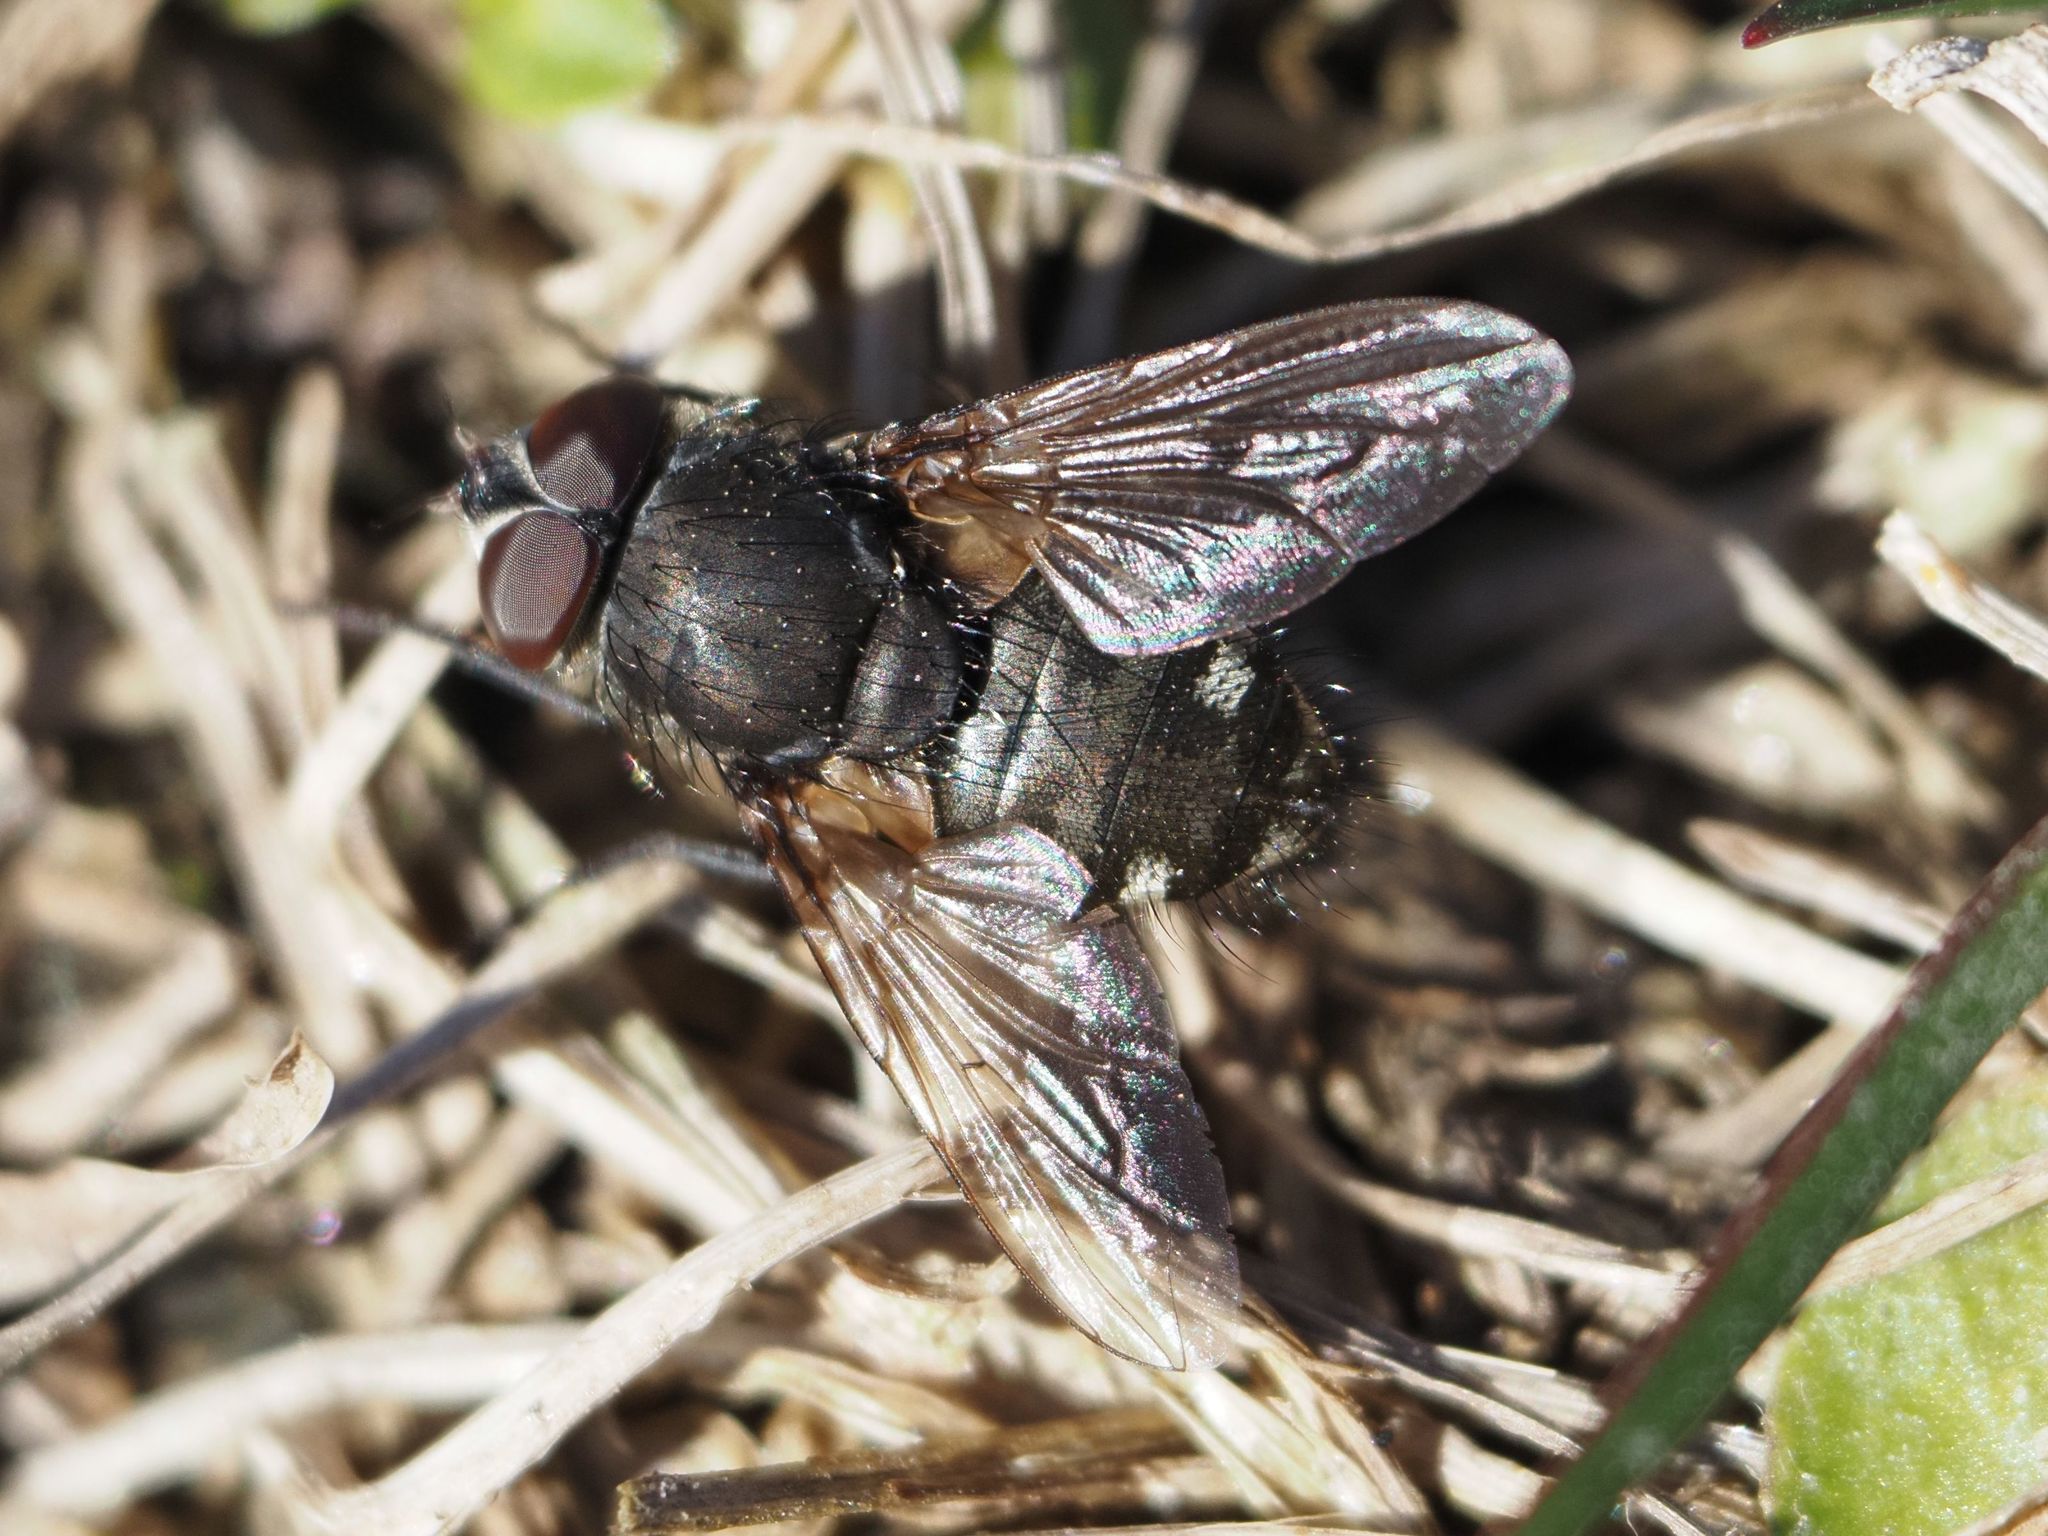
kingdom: Animalia
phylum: Arthropoda
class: Insecta
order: Diptera
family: Polleniidae
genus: Pollenia
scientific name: Pollenia intermedia
